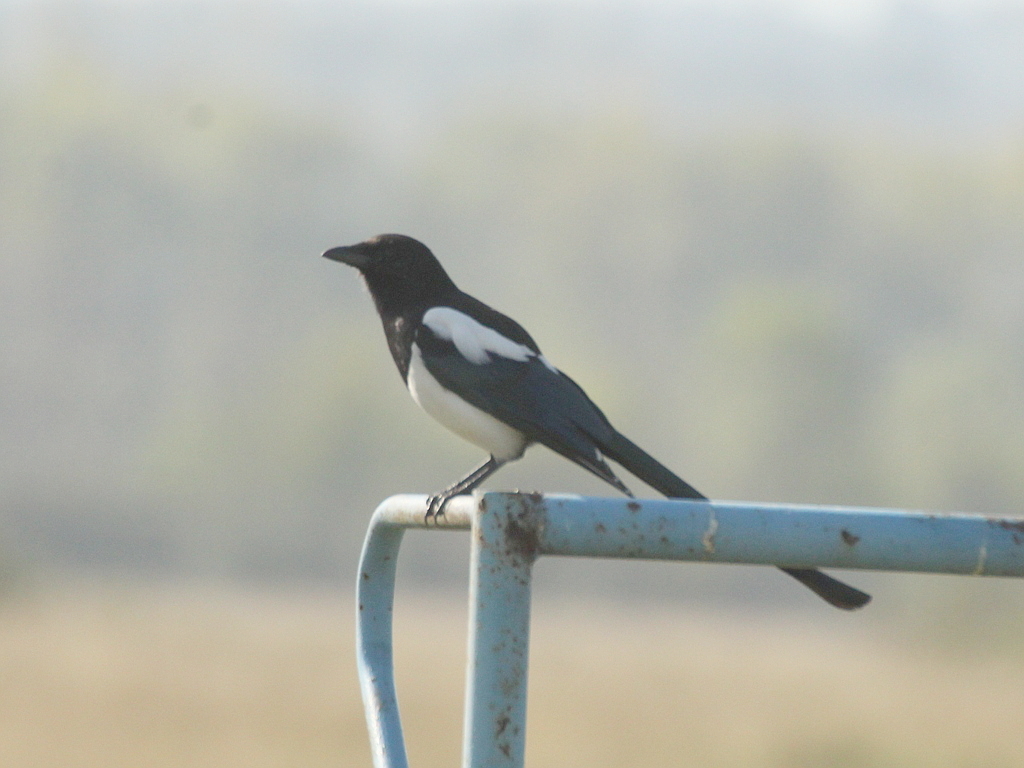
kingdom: Animalia
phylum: Chordata
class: Aves
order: Passeriformes
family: Corvidae
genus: Pica
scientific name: Pica pica
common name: Eurasian magpie
